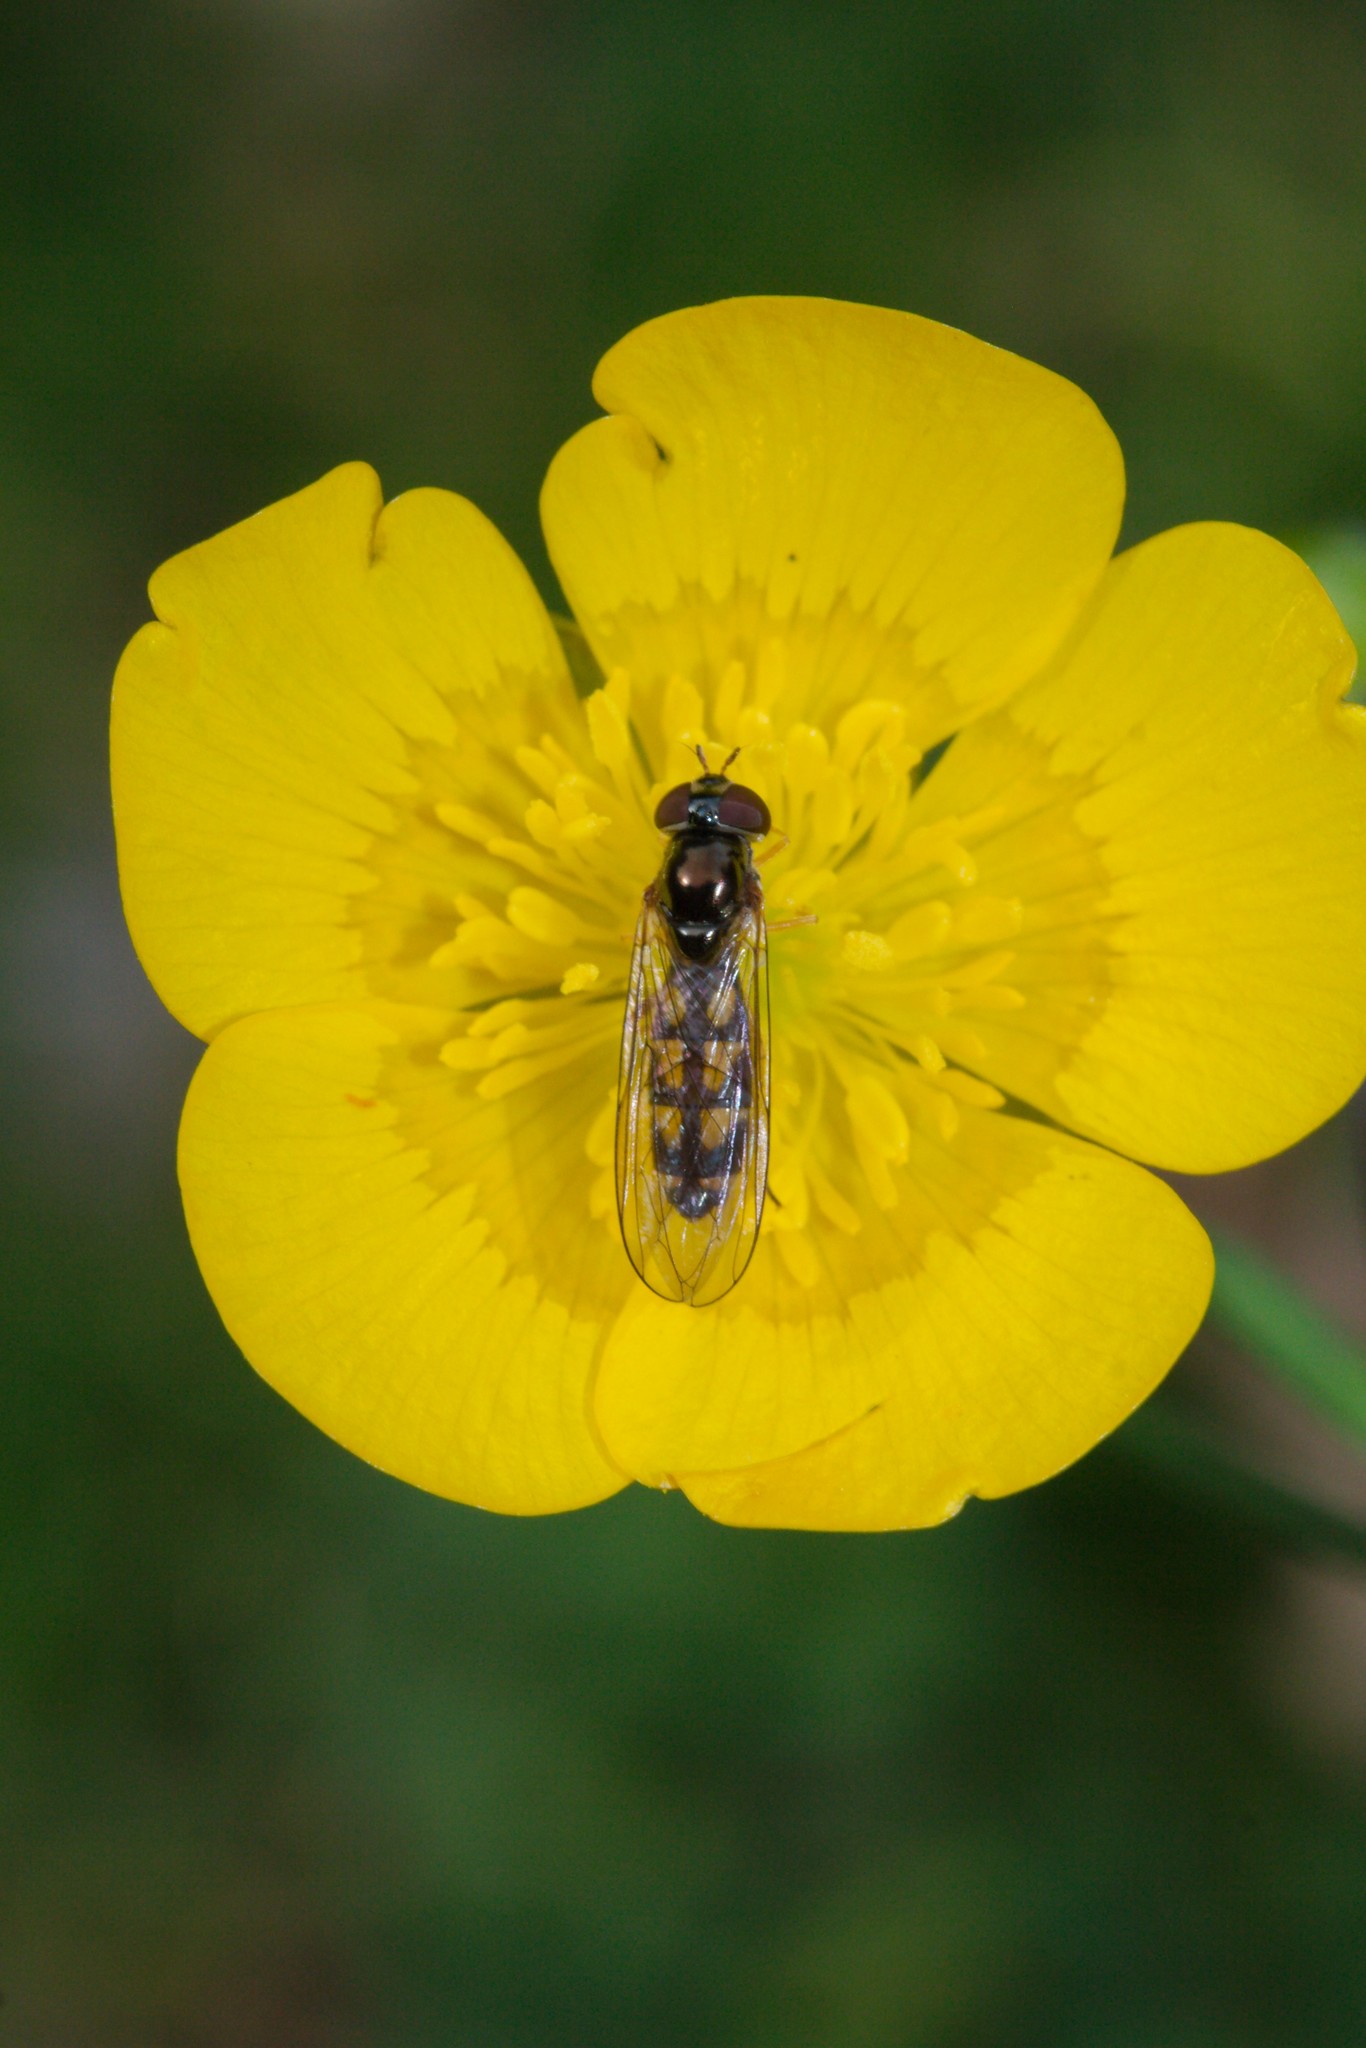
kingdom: Animalia
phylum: Arthropoda
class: Insecta
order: Diptera
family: Syrphidae
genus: Melanostoma
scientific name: Melanostoma scalare
